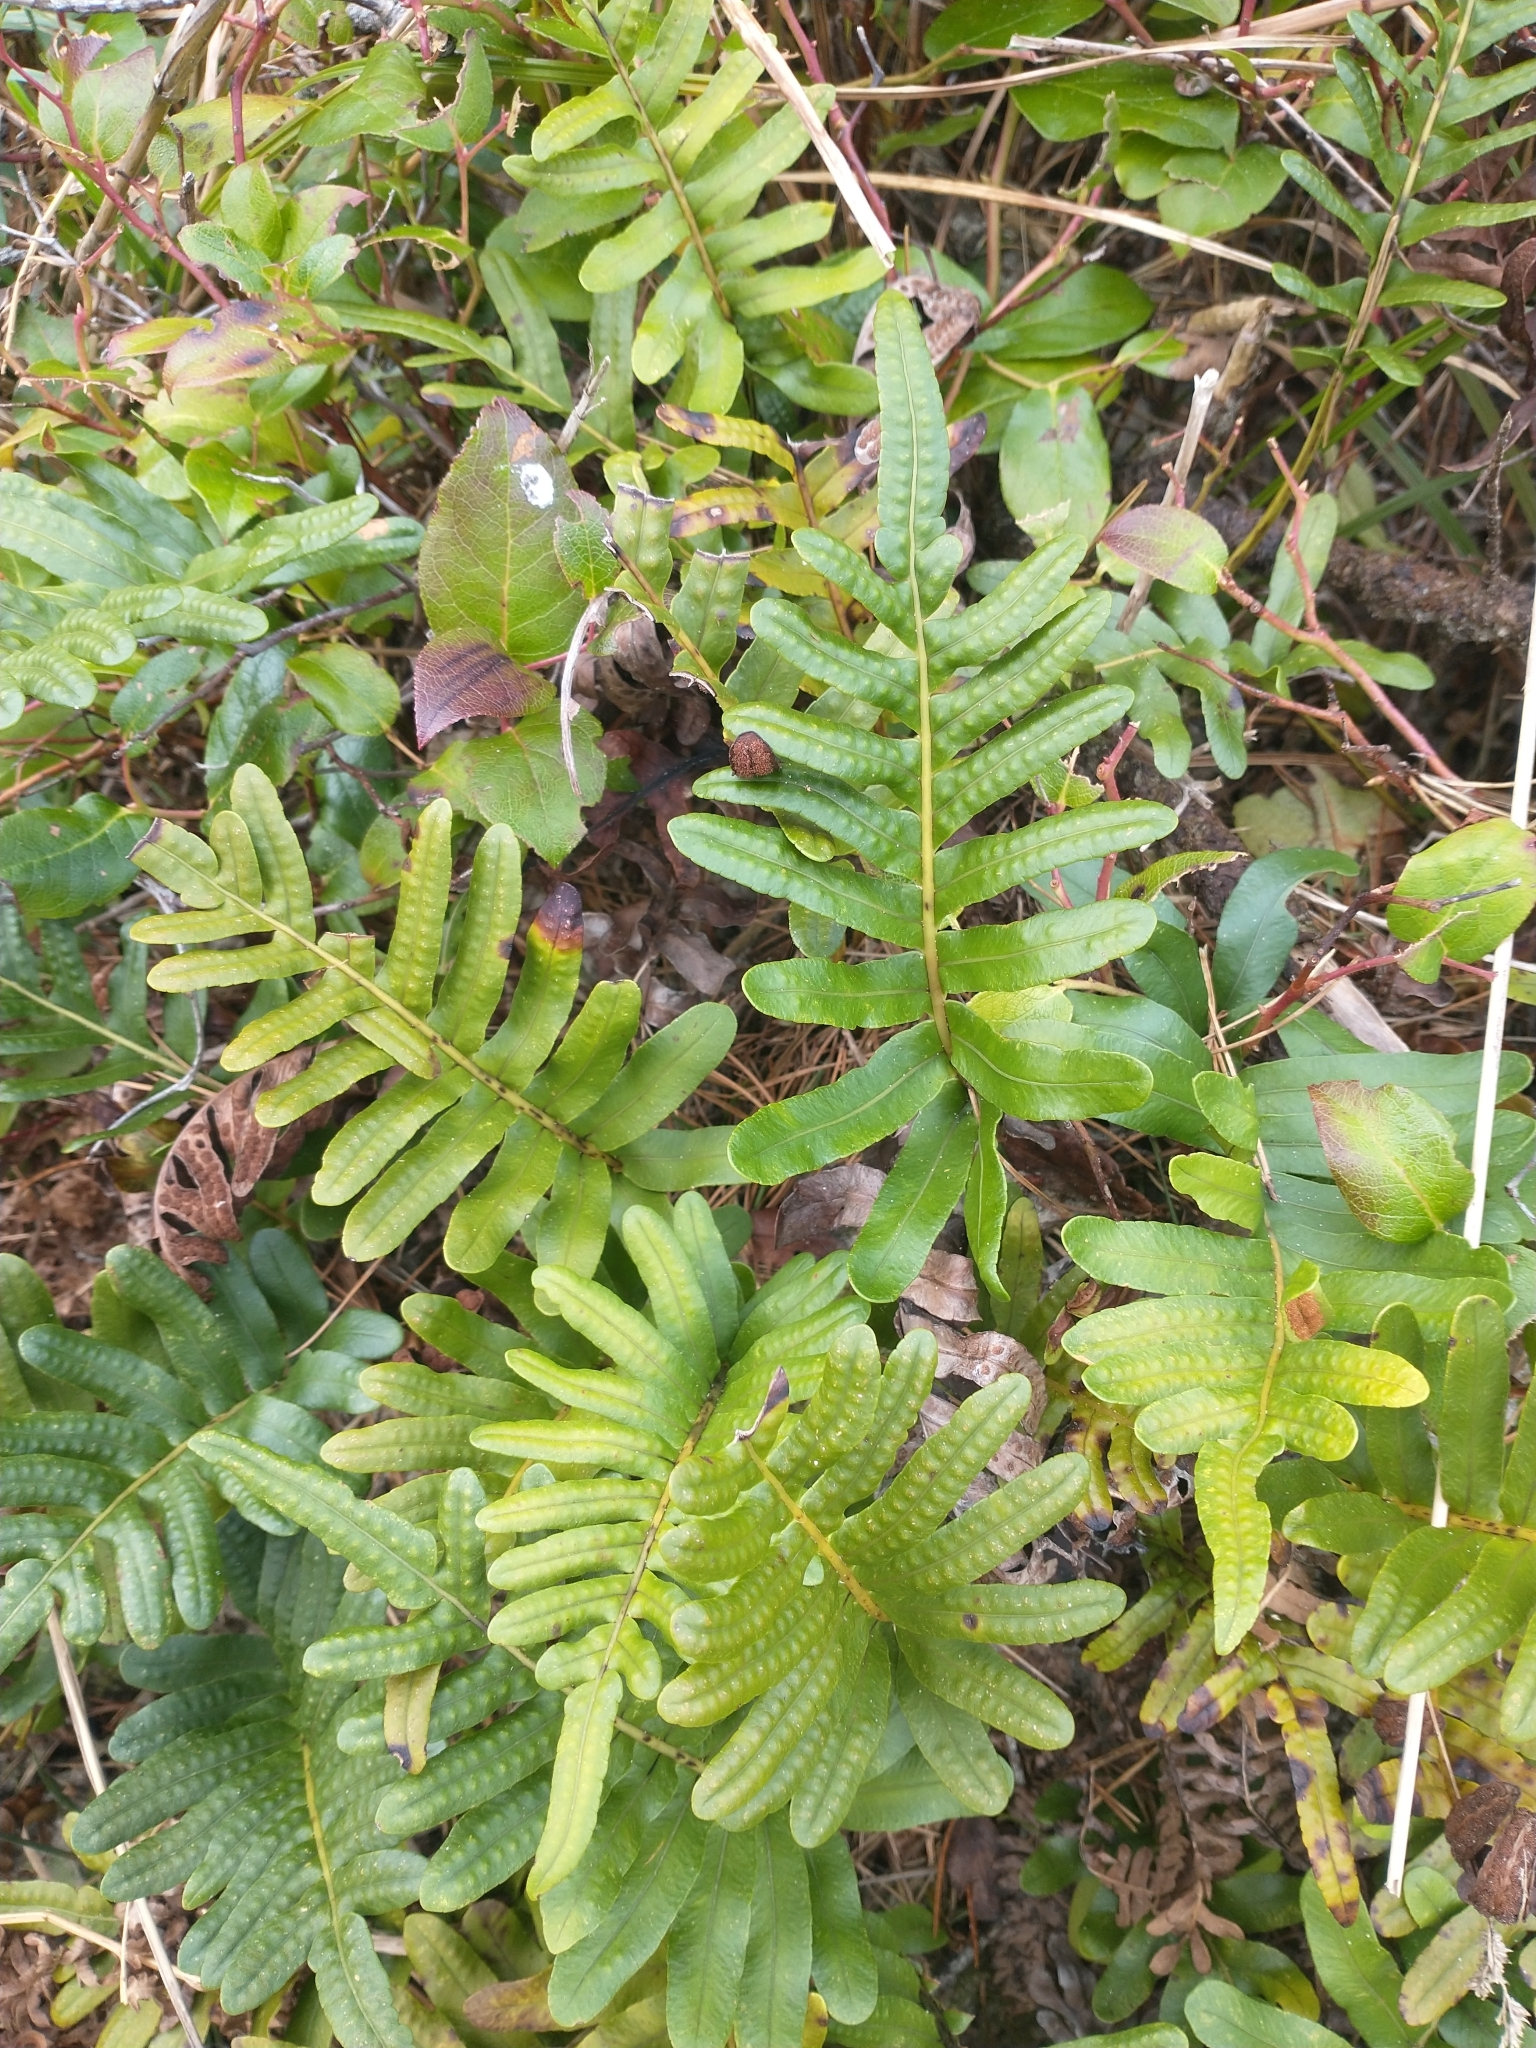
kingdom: Plantae
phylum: Tracheophyta
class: Polypodiopsida
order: Polypodiales
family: Polypodiaceae
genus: Polypodium
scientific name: Polypodium scouleri
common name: Scouler's polypody
